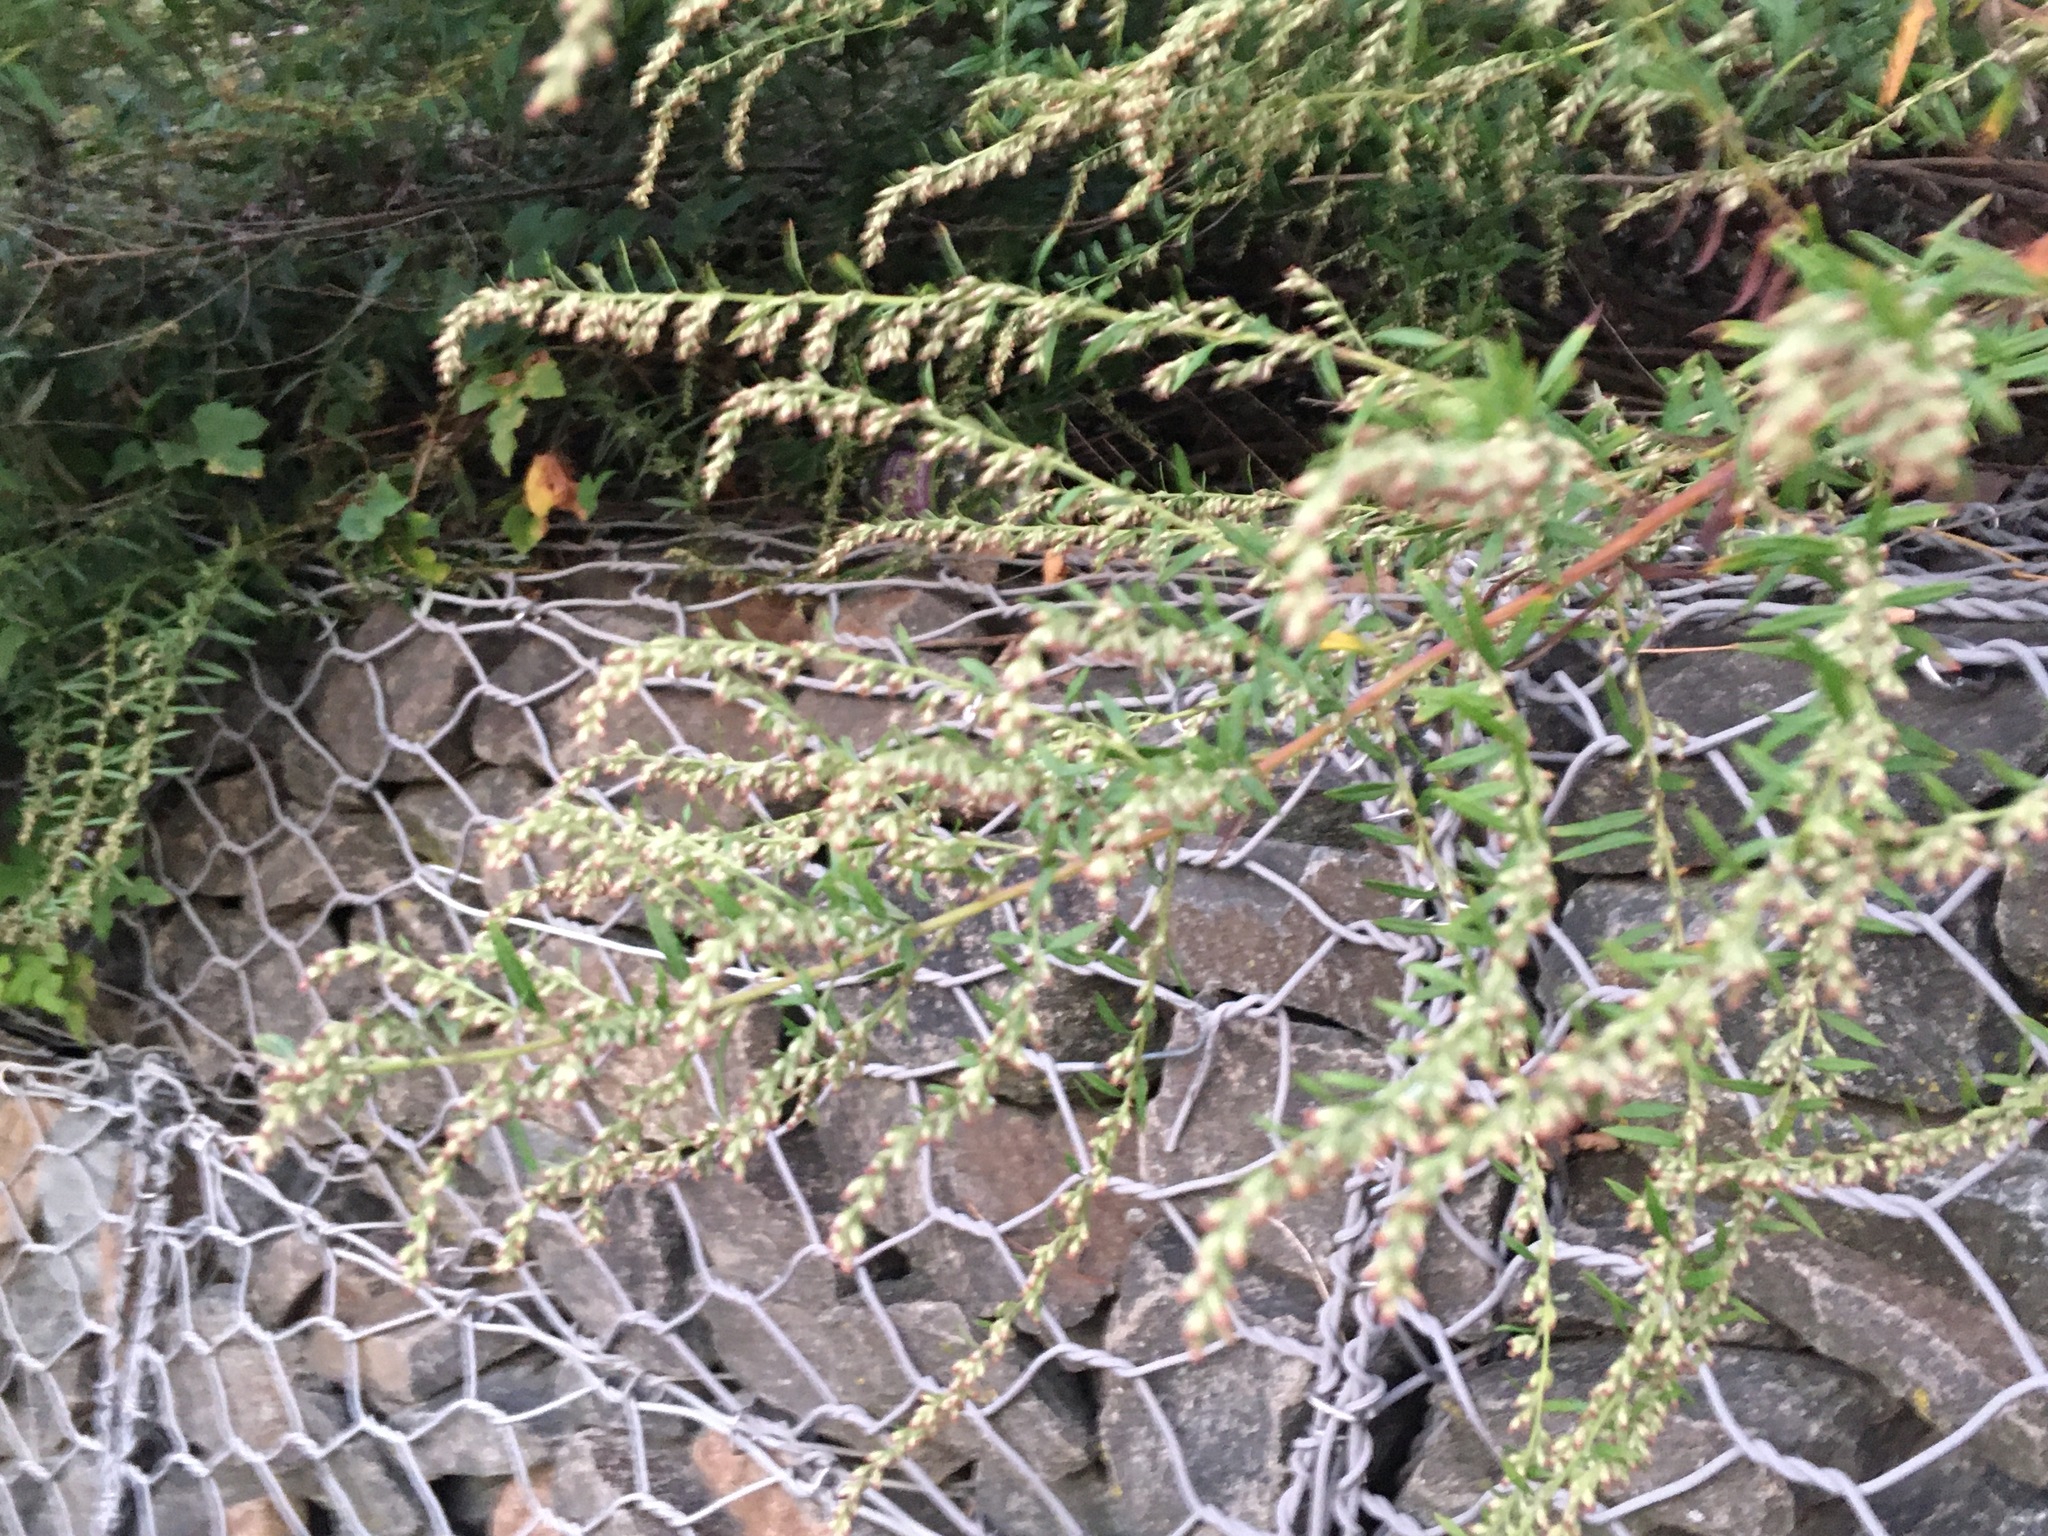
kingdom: Plantae
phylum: Tracheophyta
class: Magnoliopsida
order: Asterales
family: Asteraceae
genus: Artemisia
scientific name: Artemisia vulgaris
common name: Mugwort
